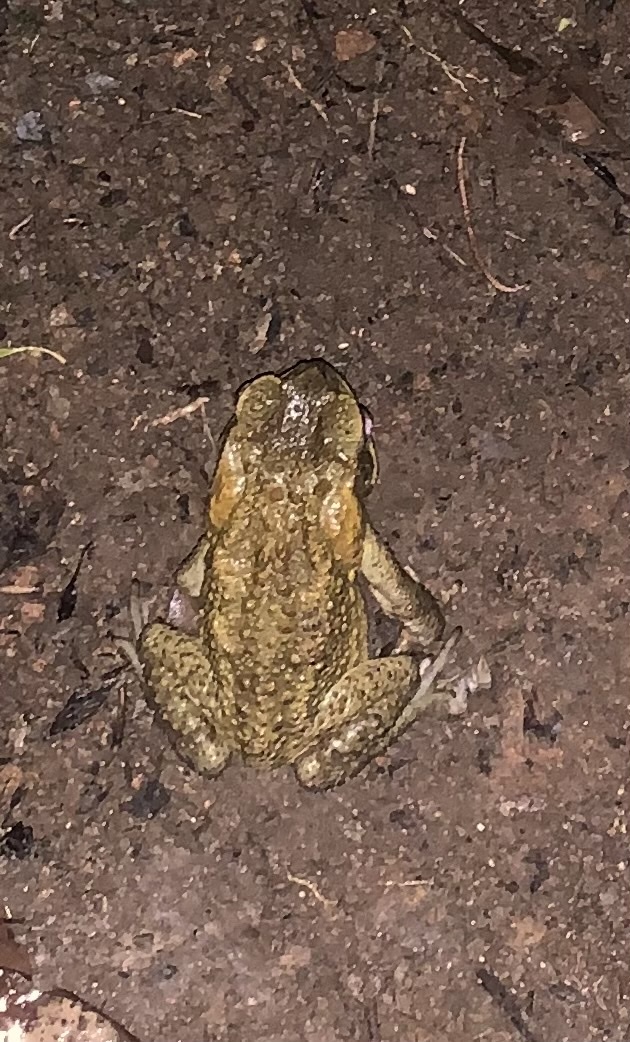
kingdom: Animalia
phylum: Chordata
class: Amphibia
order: Anura
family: Bufonidae
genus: Rhinella
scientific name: Rhinella marina
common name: Cane toad
